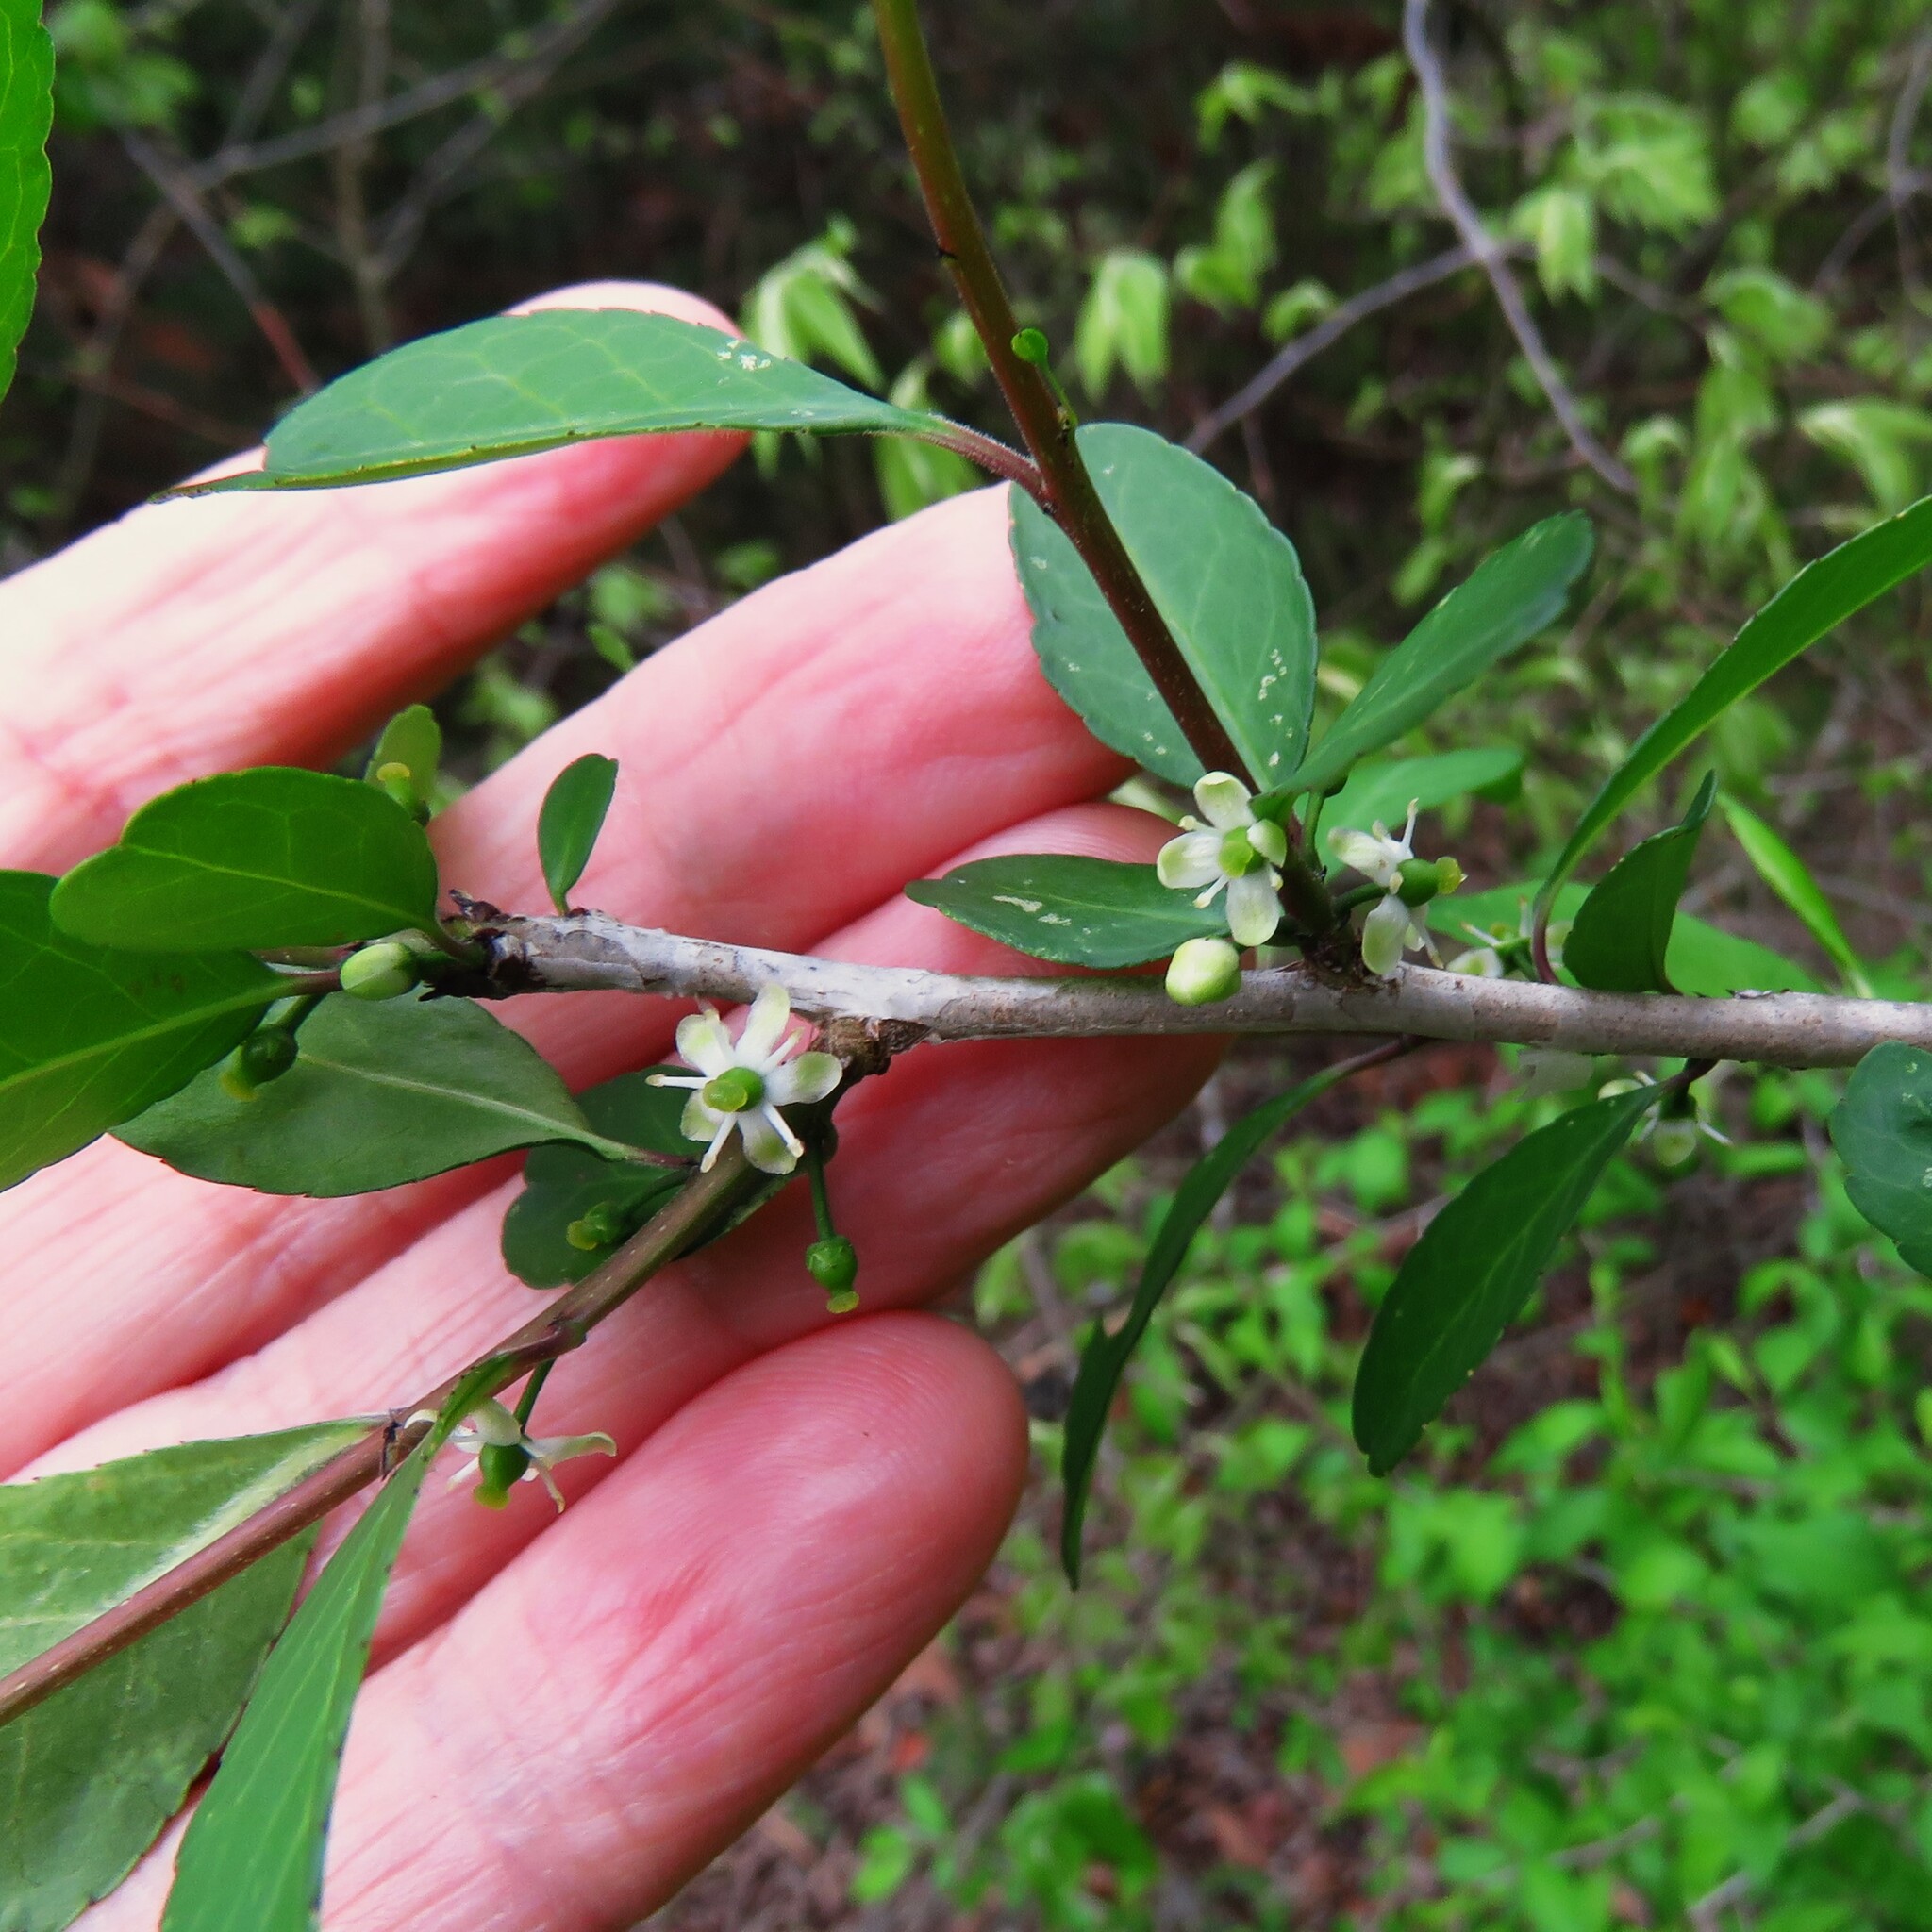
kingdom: Plantae
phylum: Tracheophyta
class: Magnoliopsida
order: Aquifoliales
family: Aquifoliaceae
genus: Ilex
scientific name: Ilex decidua
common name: Possum-haw
